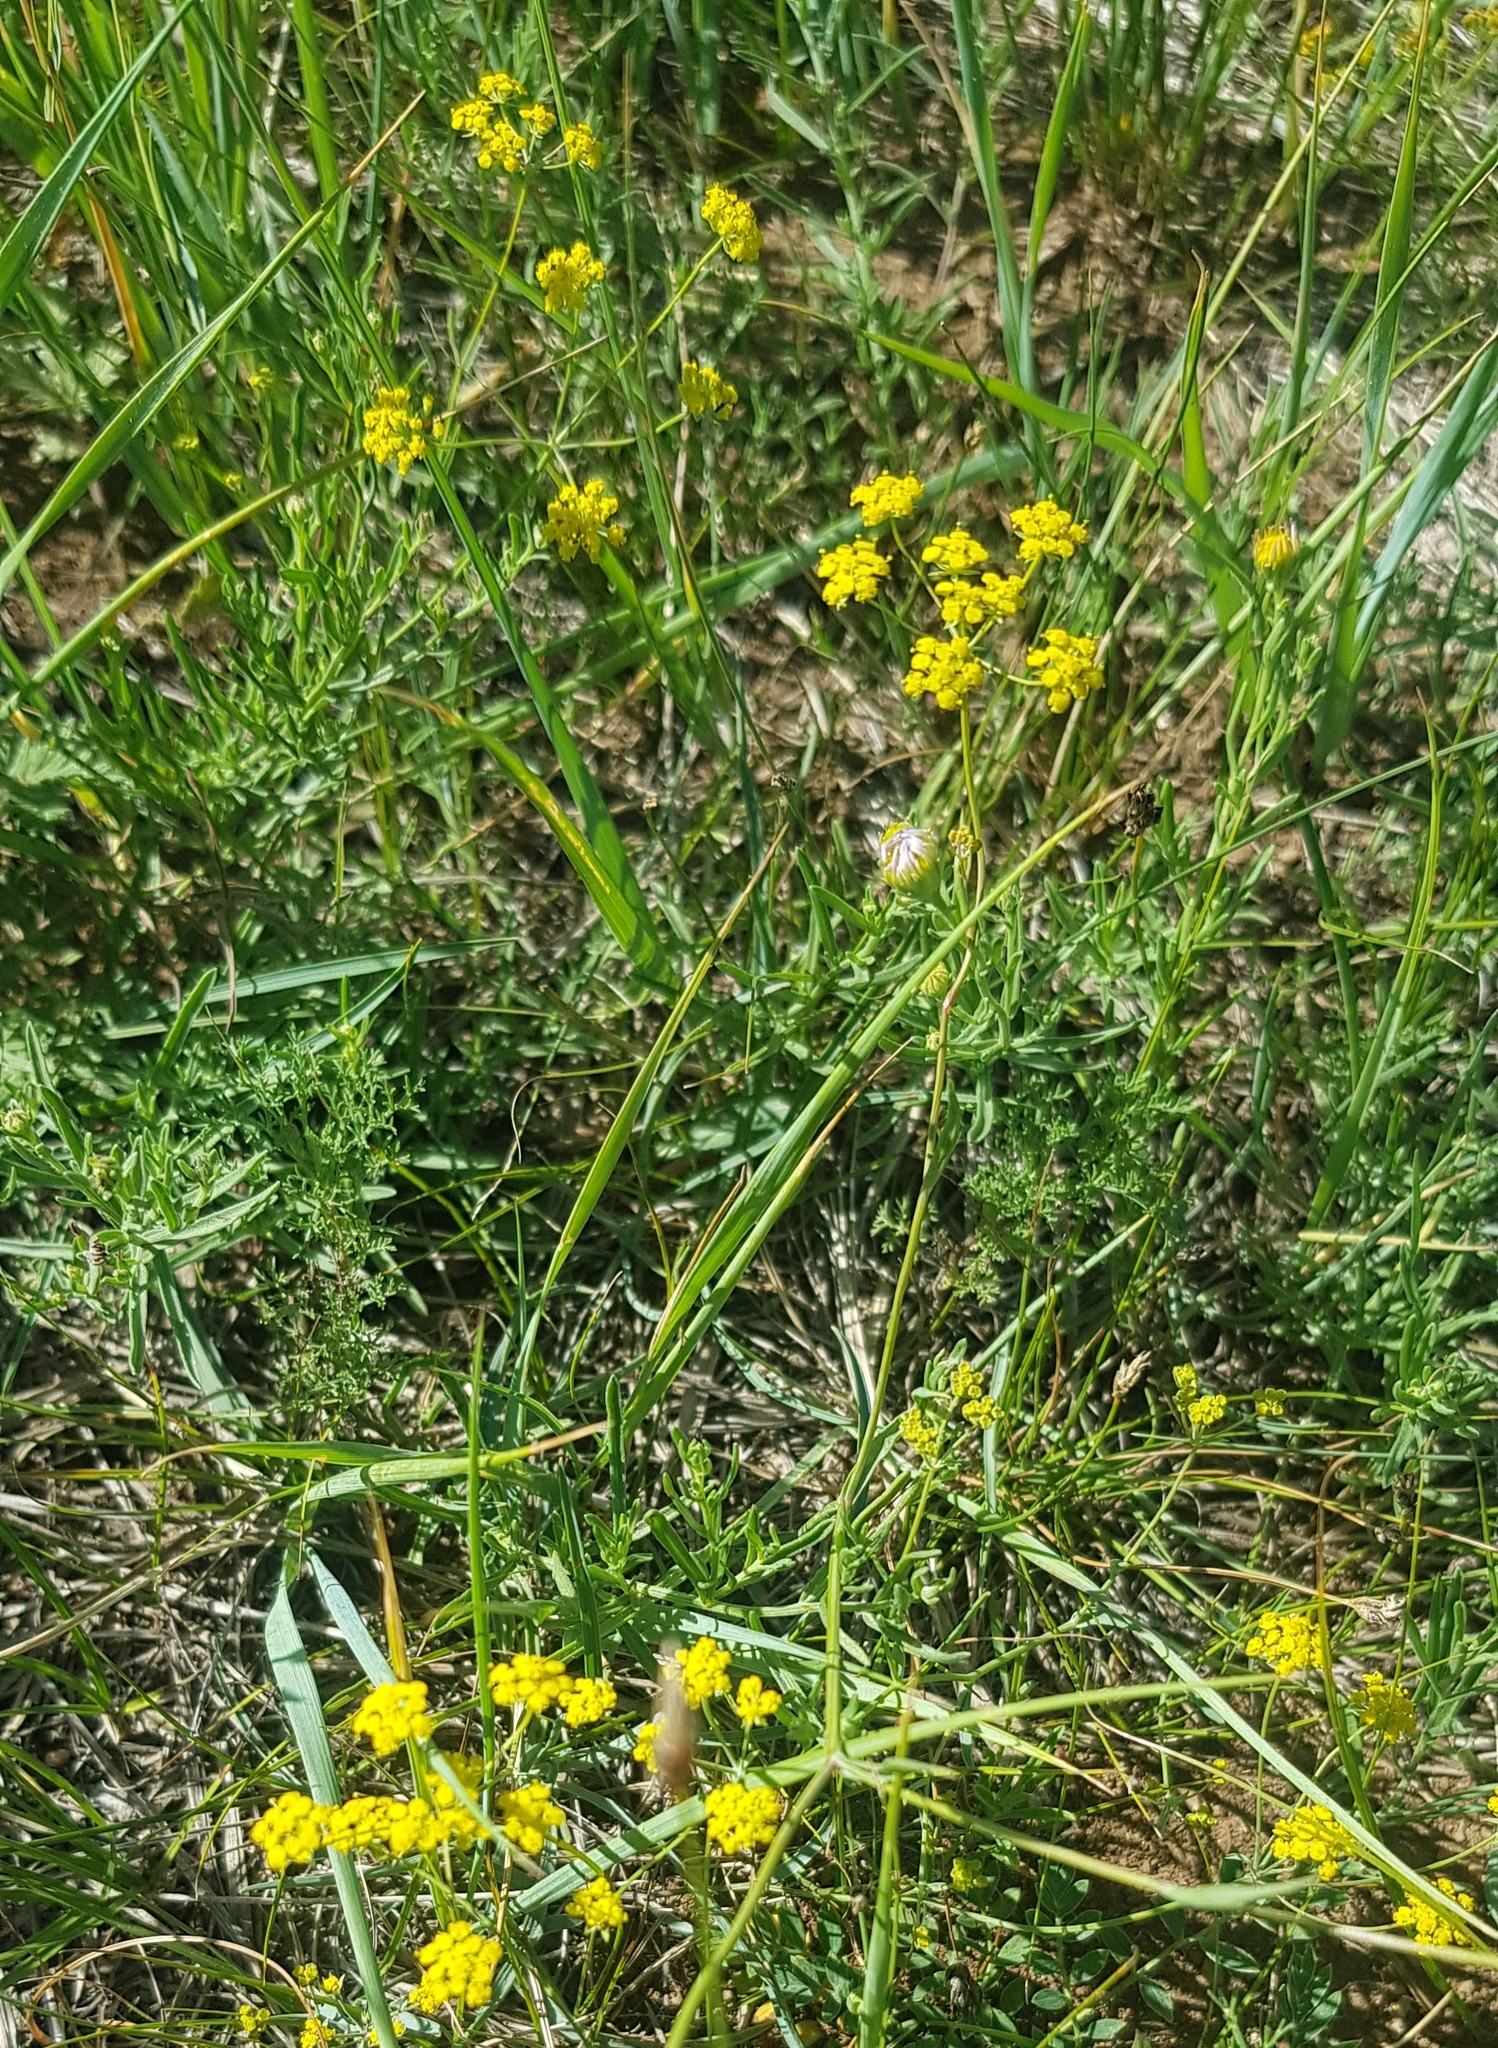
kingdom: Plantae
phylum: Tracheophyta
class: Magnoliopsida
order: Apiales
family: Apiaceae
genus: Bupleurum
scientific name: Bupleurum scorzonerifolium
